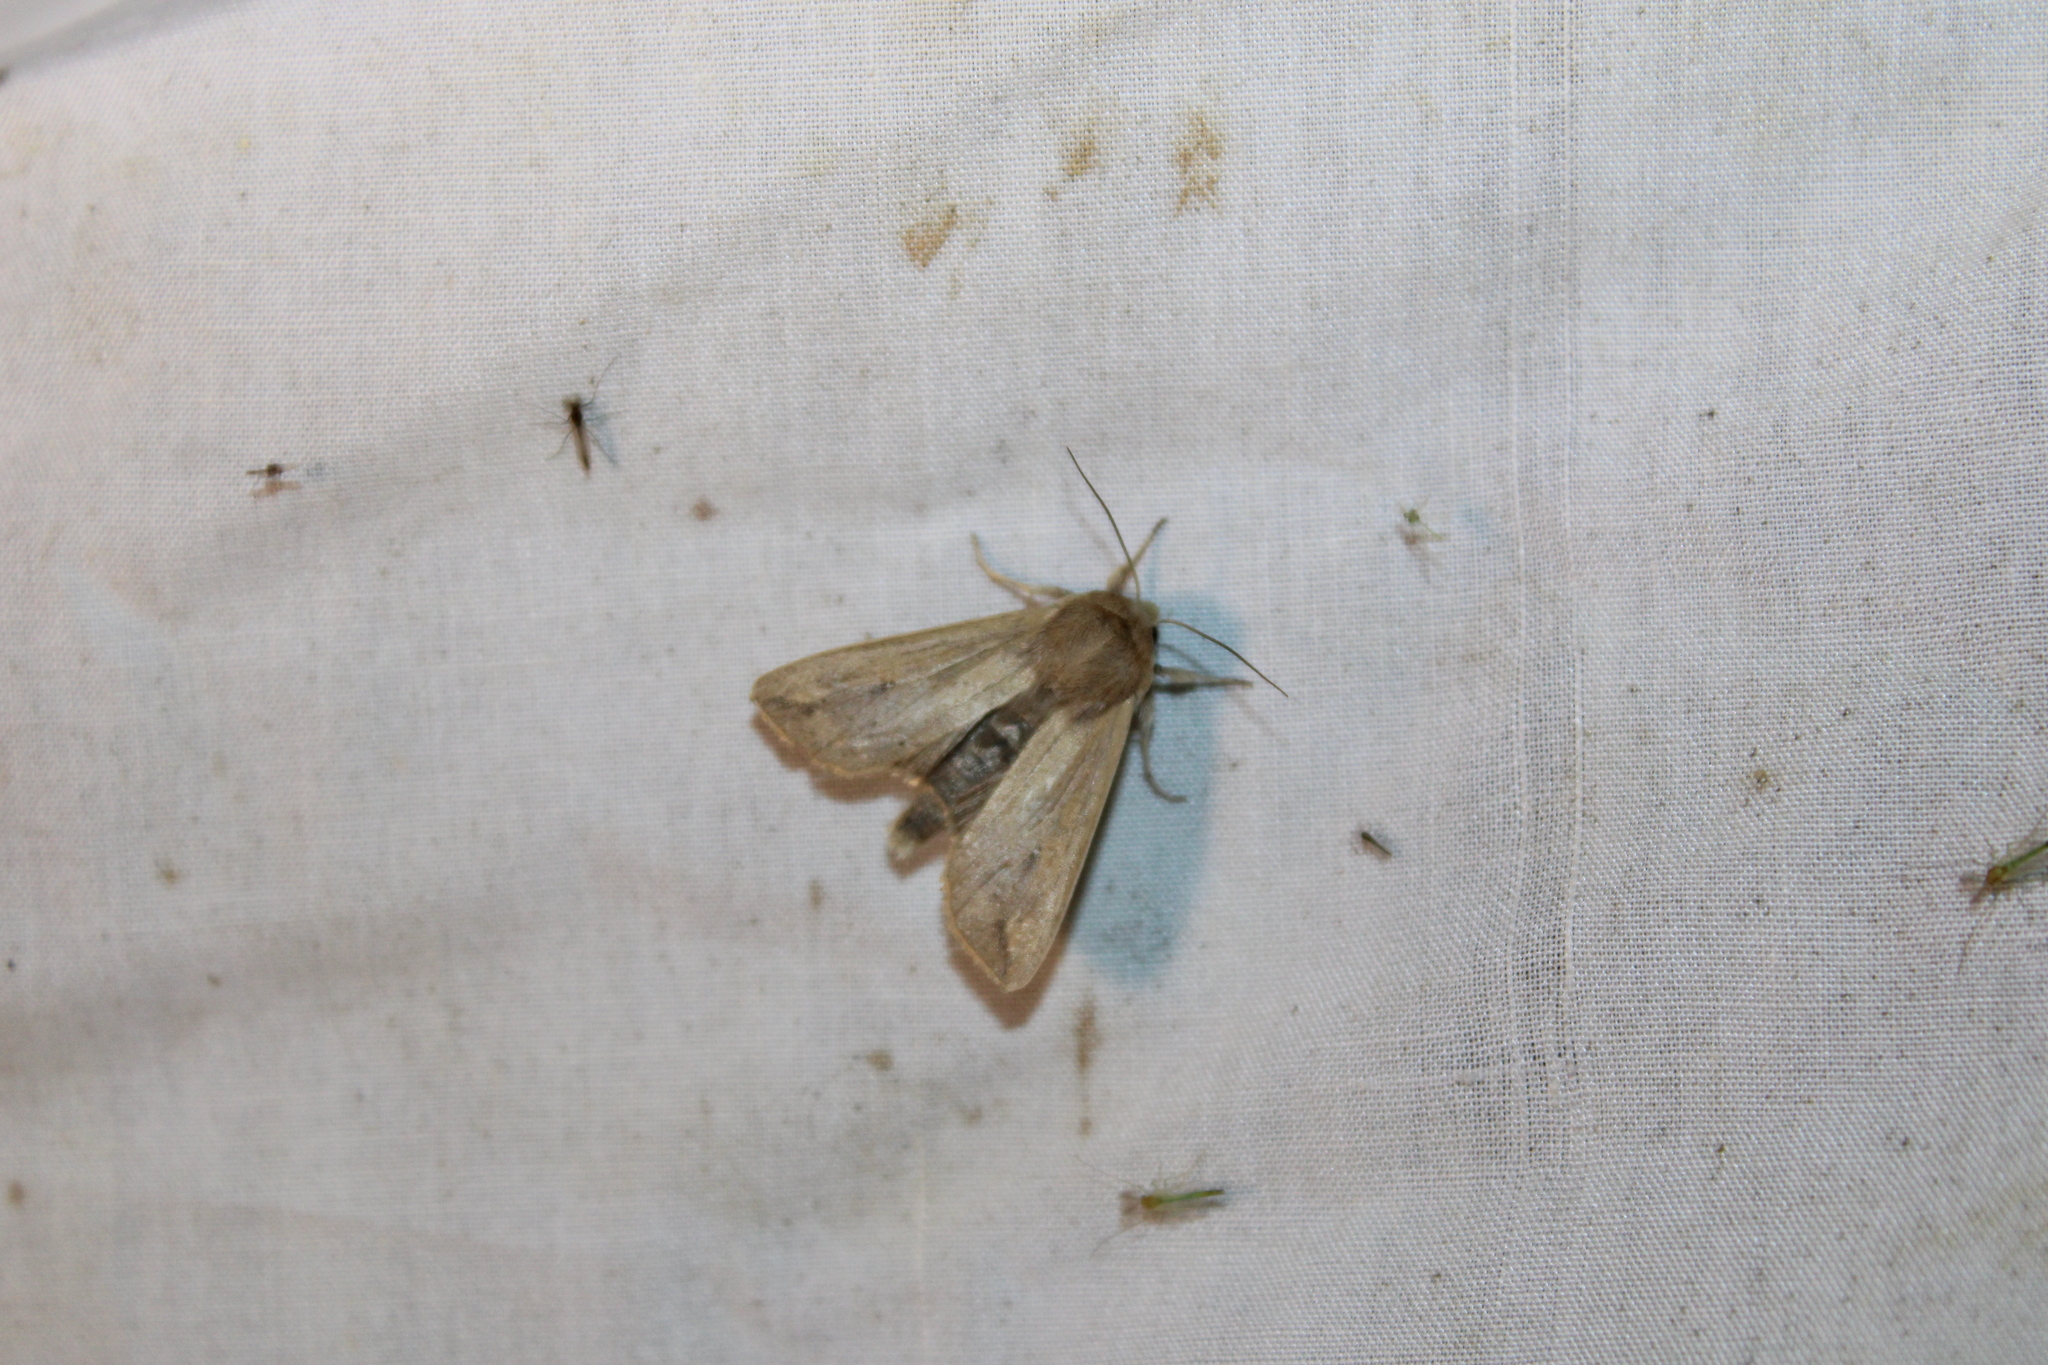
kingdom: Animalia
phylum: Arthropoda
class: Insecta
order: Lepidoptera
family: Noctuidae
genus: Mythimna
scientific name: Mythimna unipuncta
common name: White-speck
